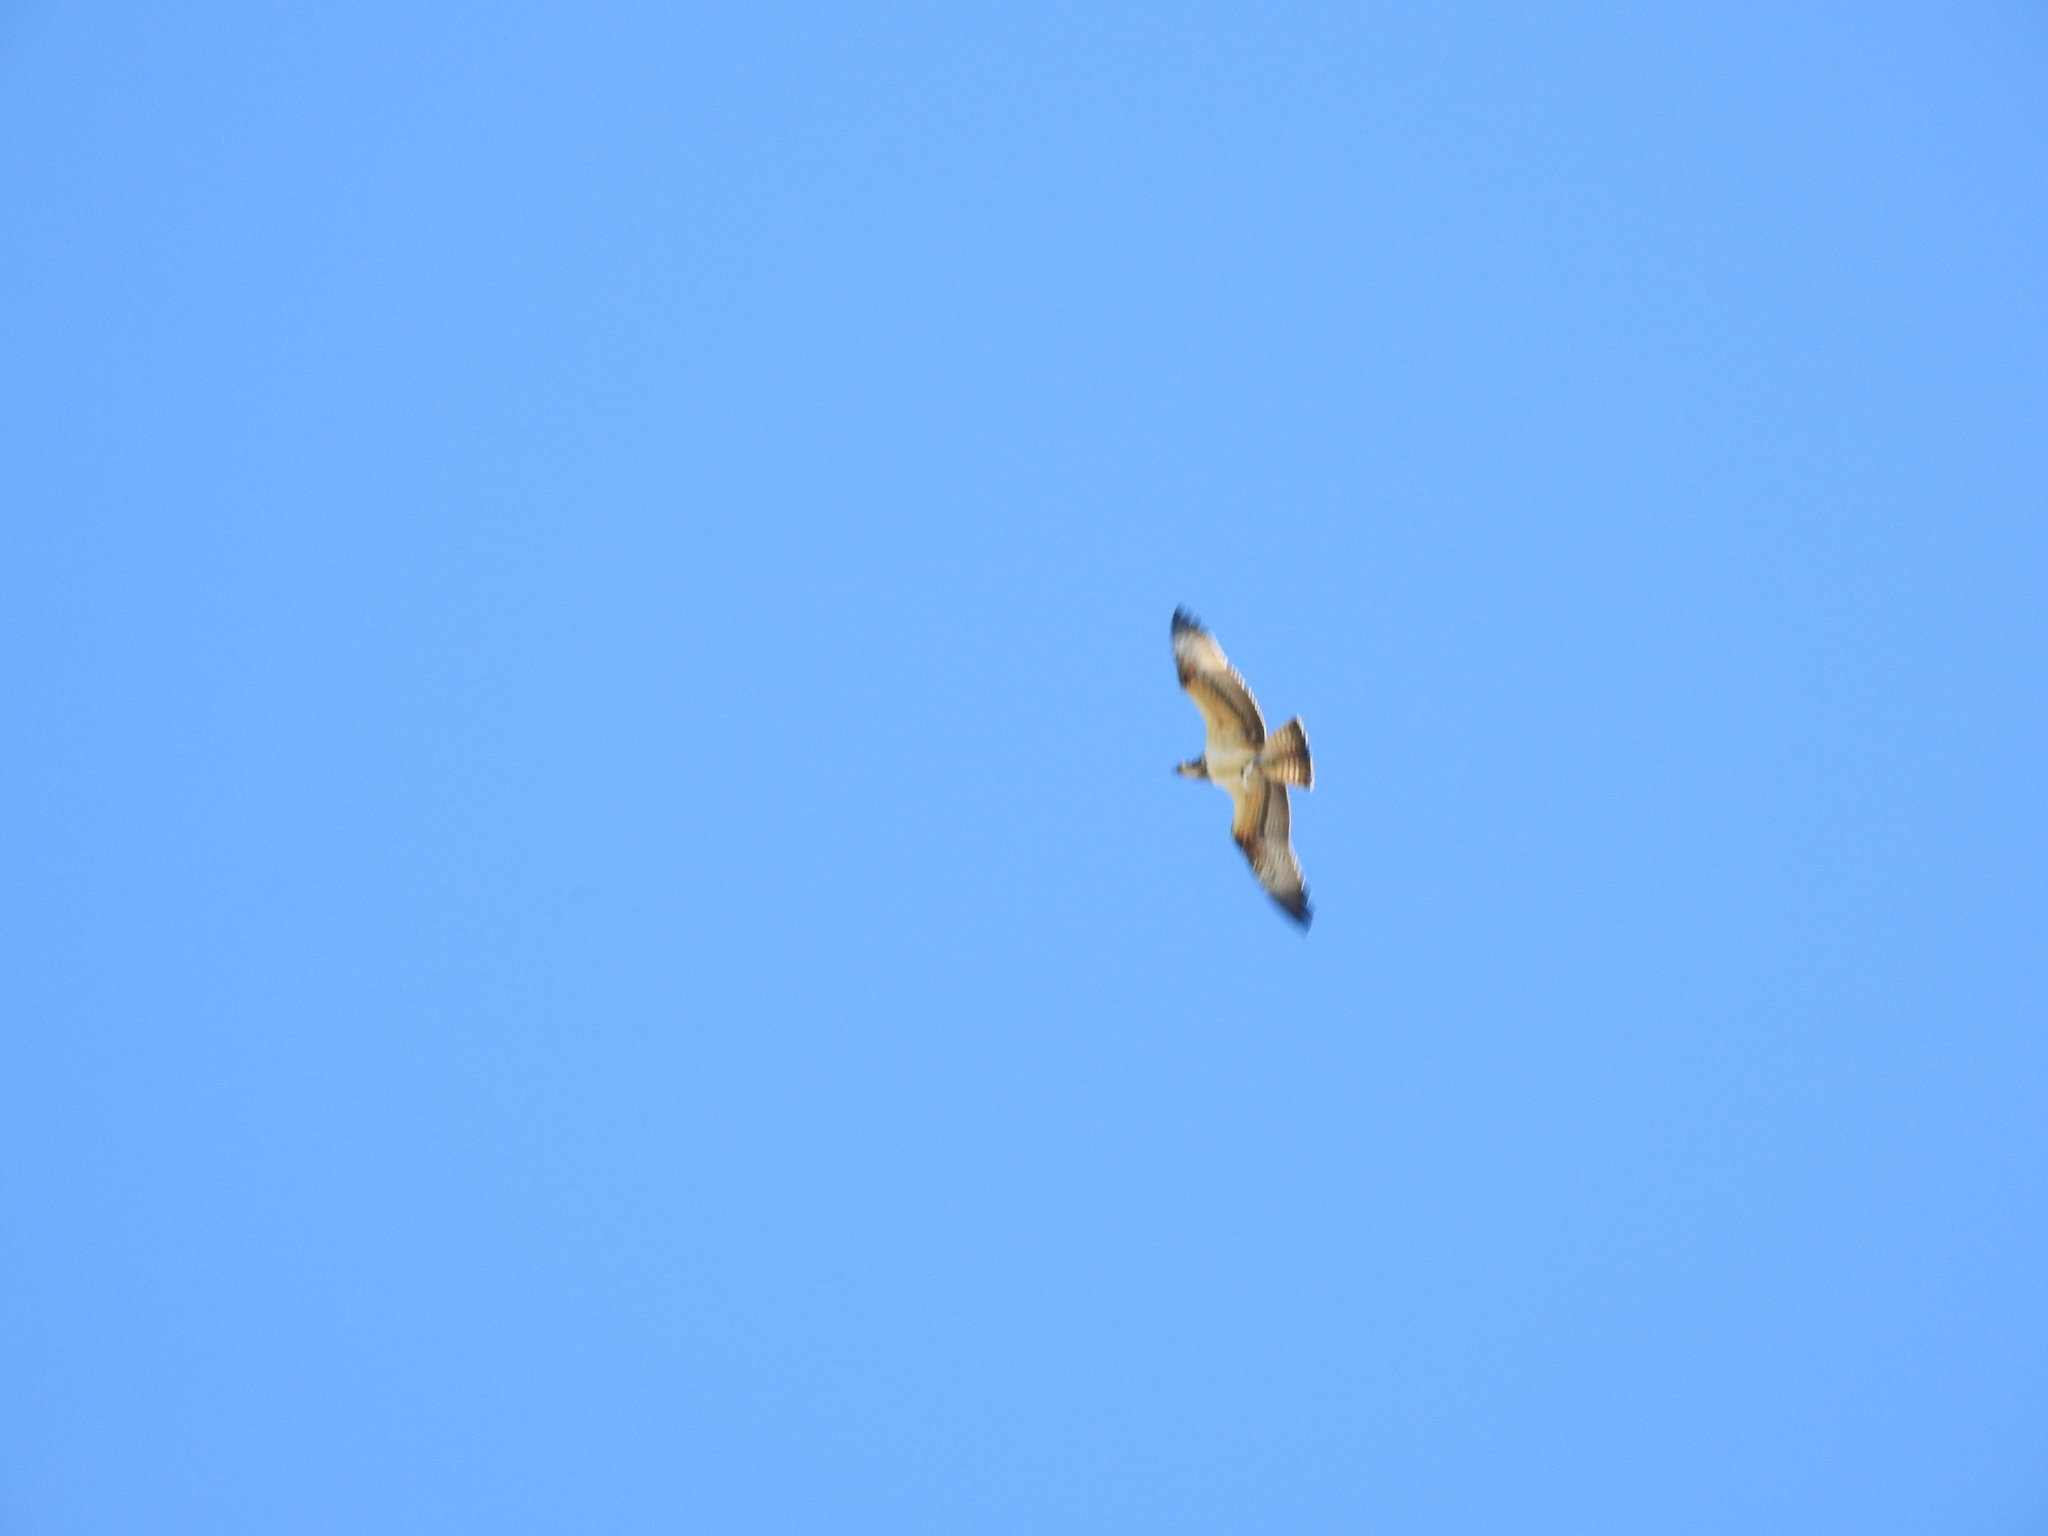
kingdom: Animalia
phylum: Chordata
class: Aves
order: Accipitriformes
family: Pandionidae
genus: Pandion
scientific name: Pandion haliaetus
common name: Osprey
